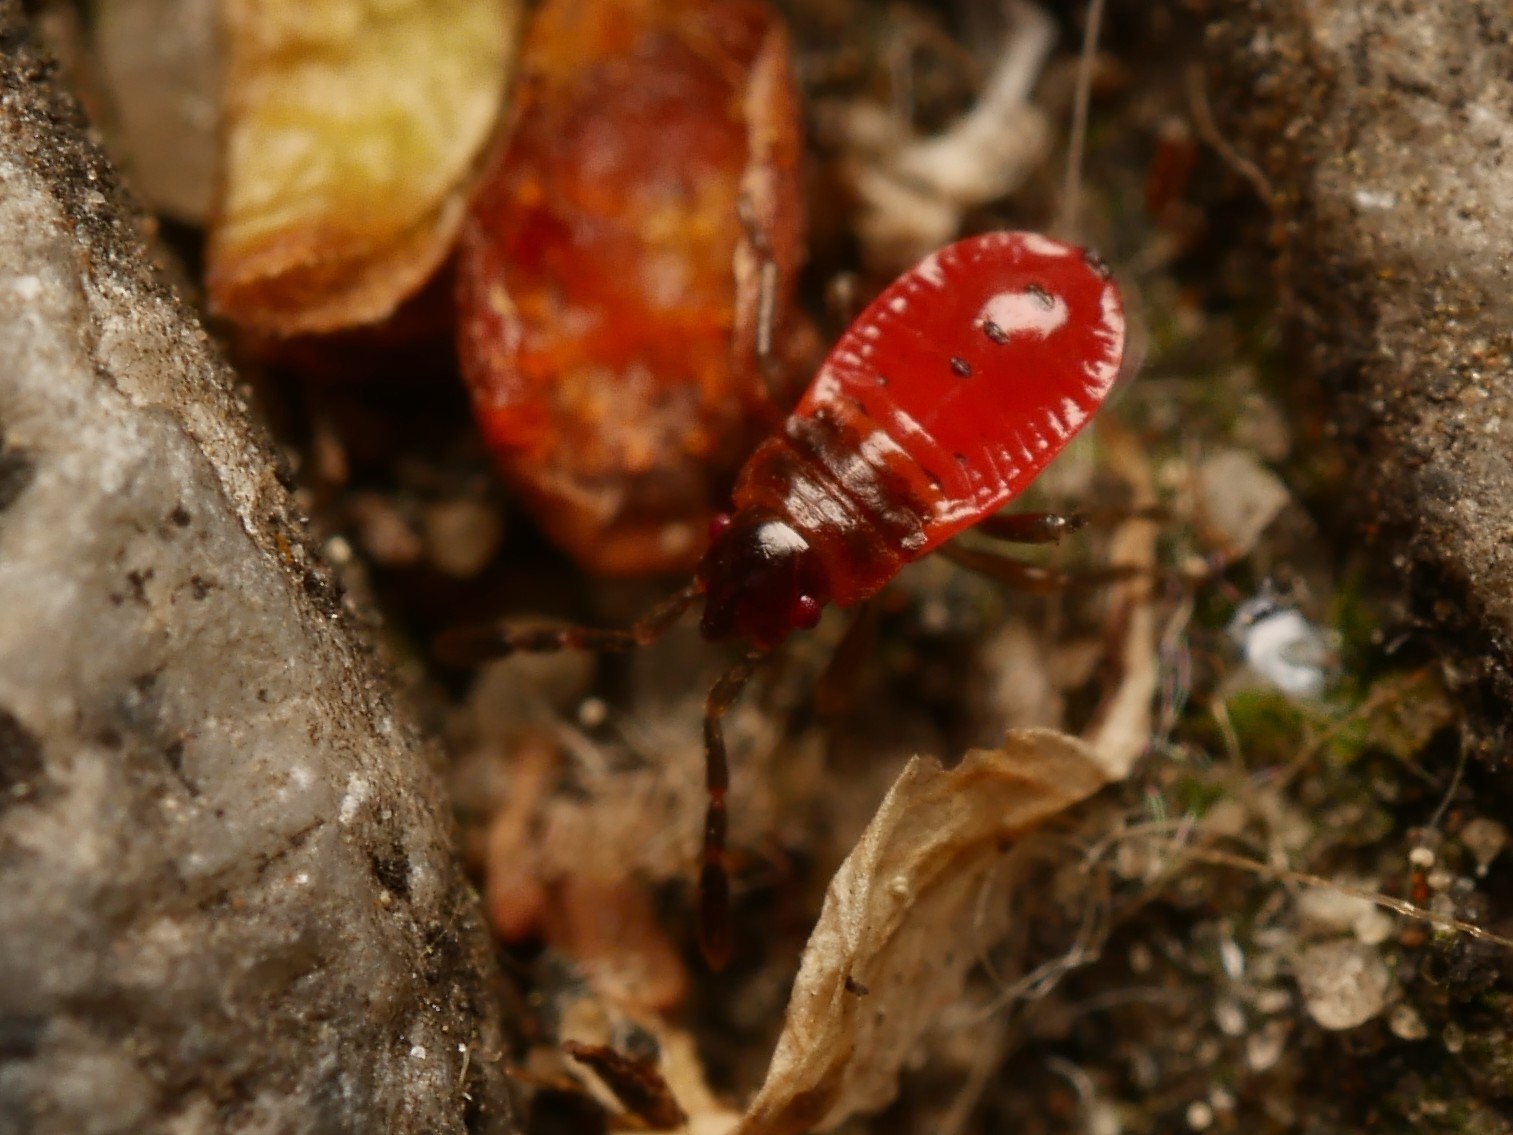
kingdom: Animalia
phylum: Arthropoda
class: Insecta
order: Hemiptera
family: Pyrrhocoridae
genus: Pyrrhocoris
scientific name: Pyrrhocoris apterus
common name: Firebug
